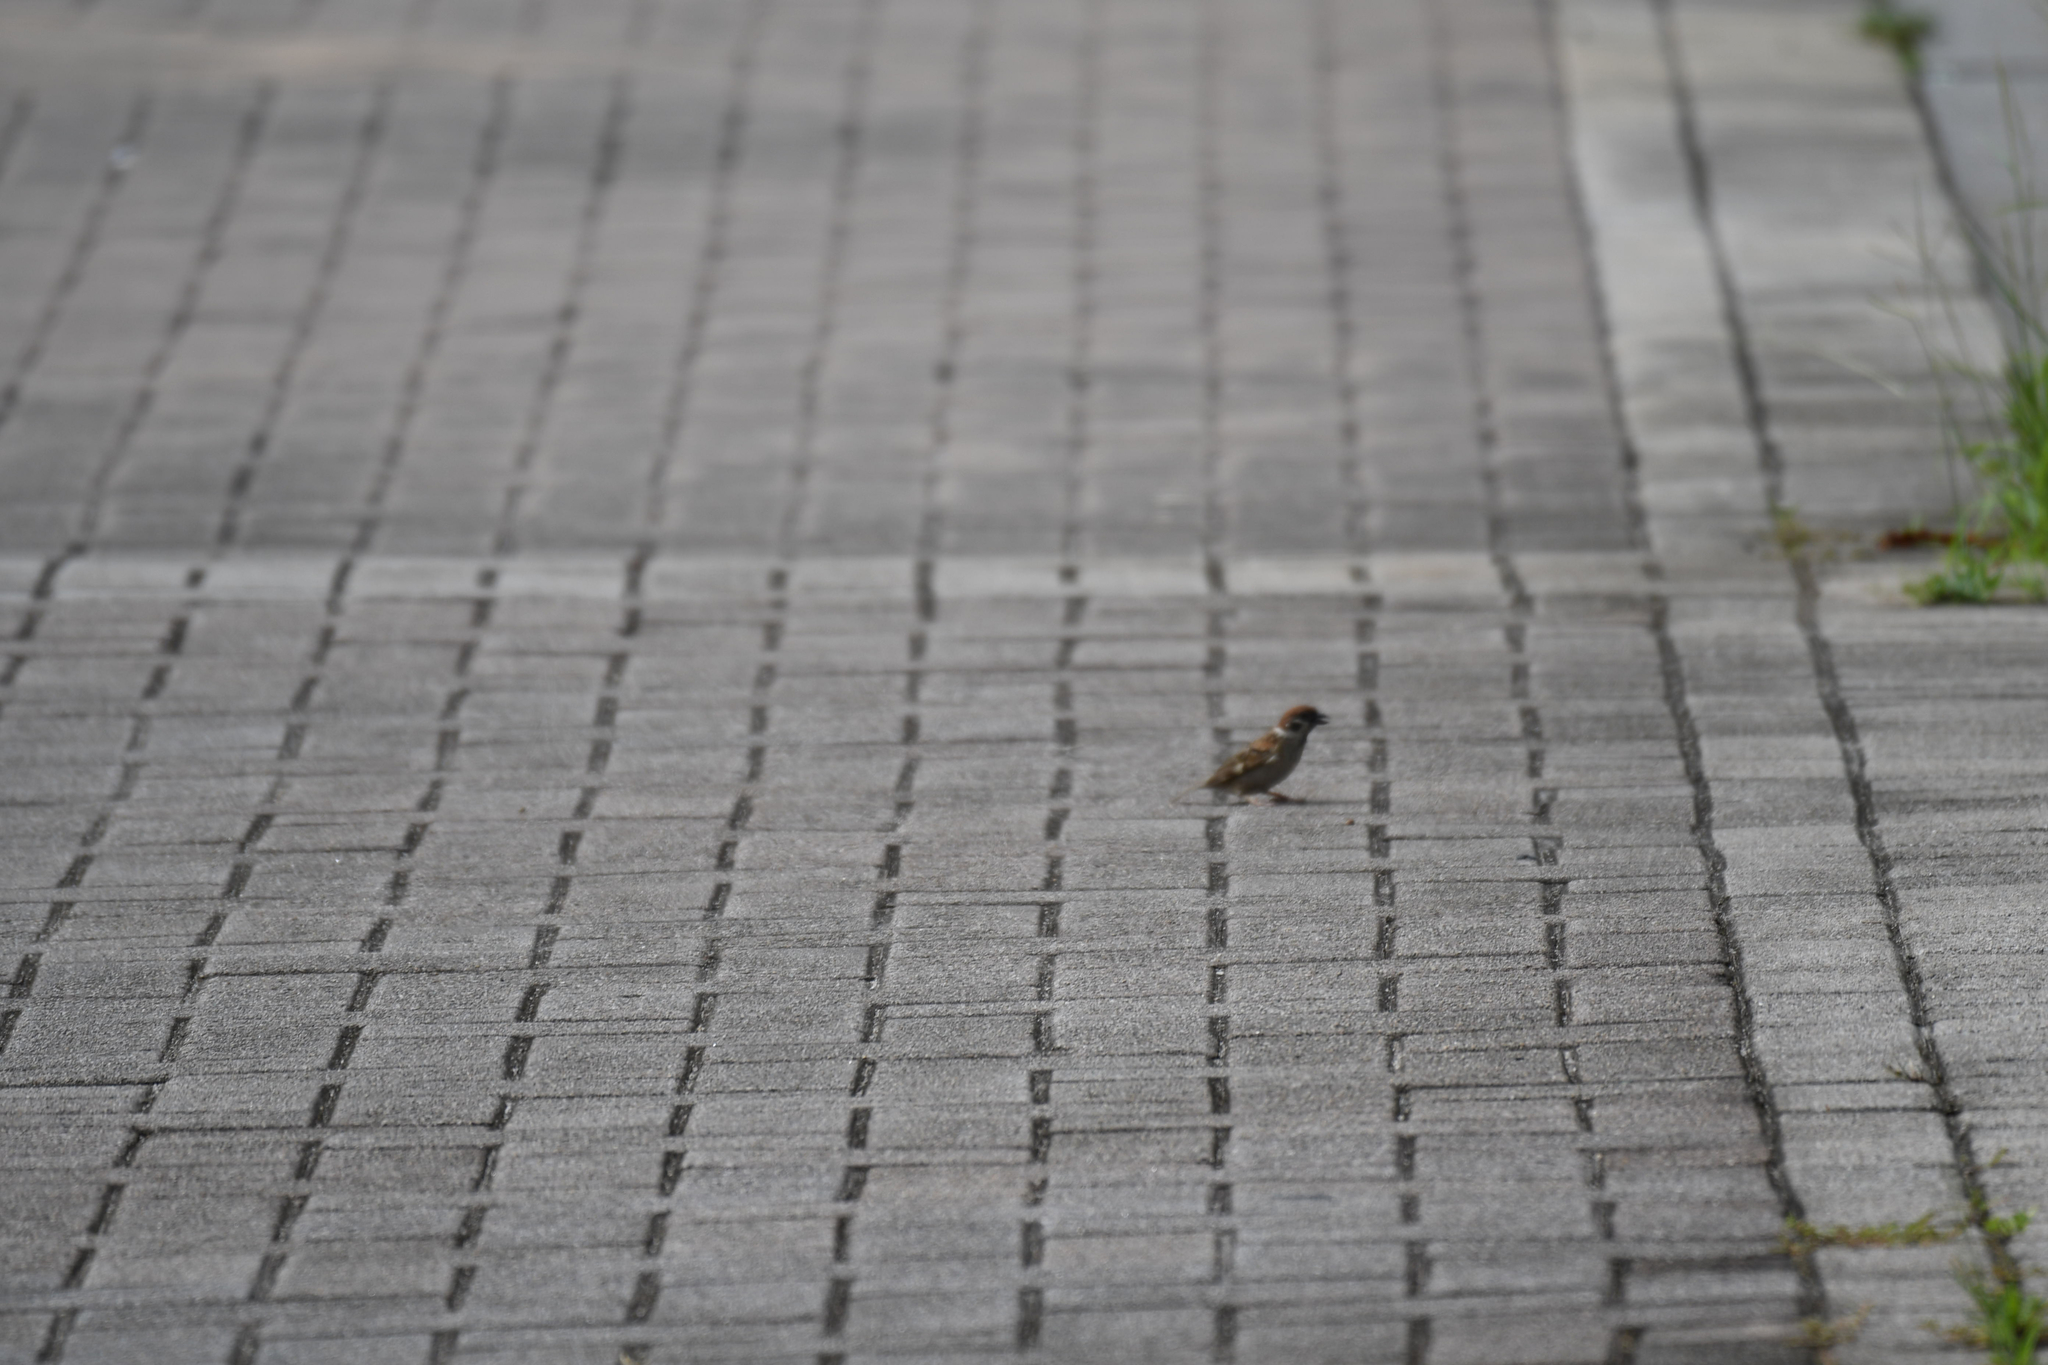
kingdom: Animalia
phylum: Chordata
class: Aves
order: Passeriformes
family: Passeridae
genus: Passer
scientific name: Passer montanus
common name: Eurasian tree sparrow
